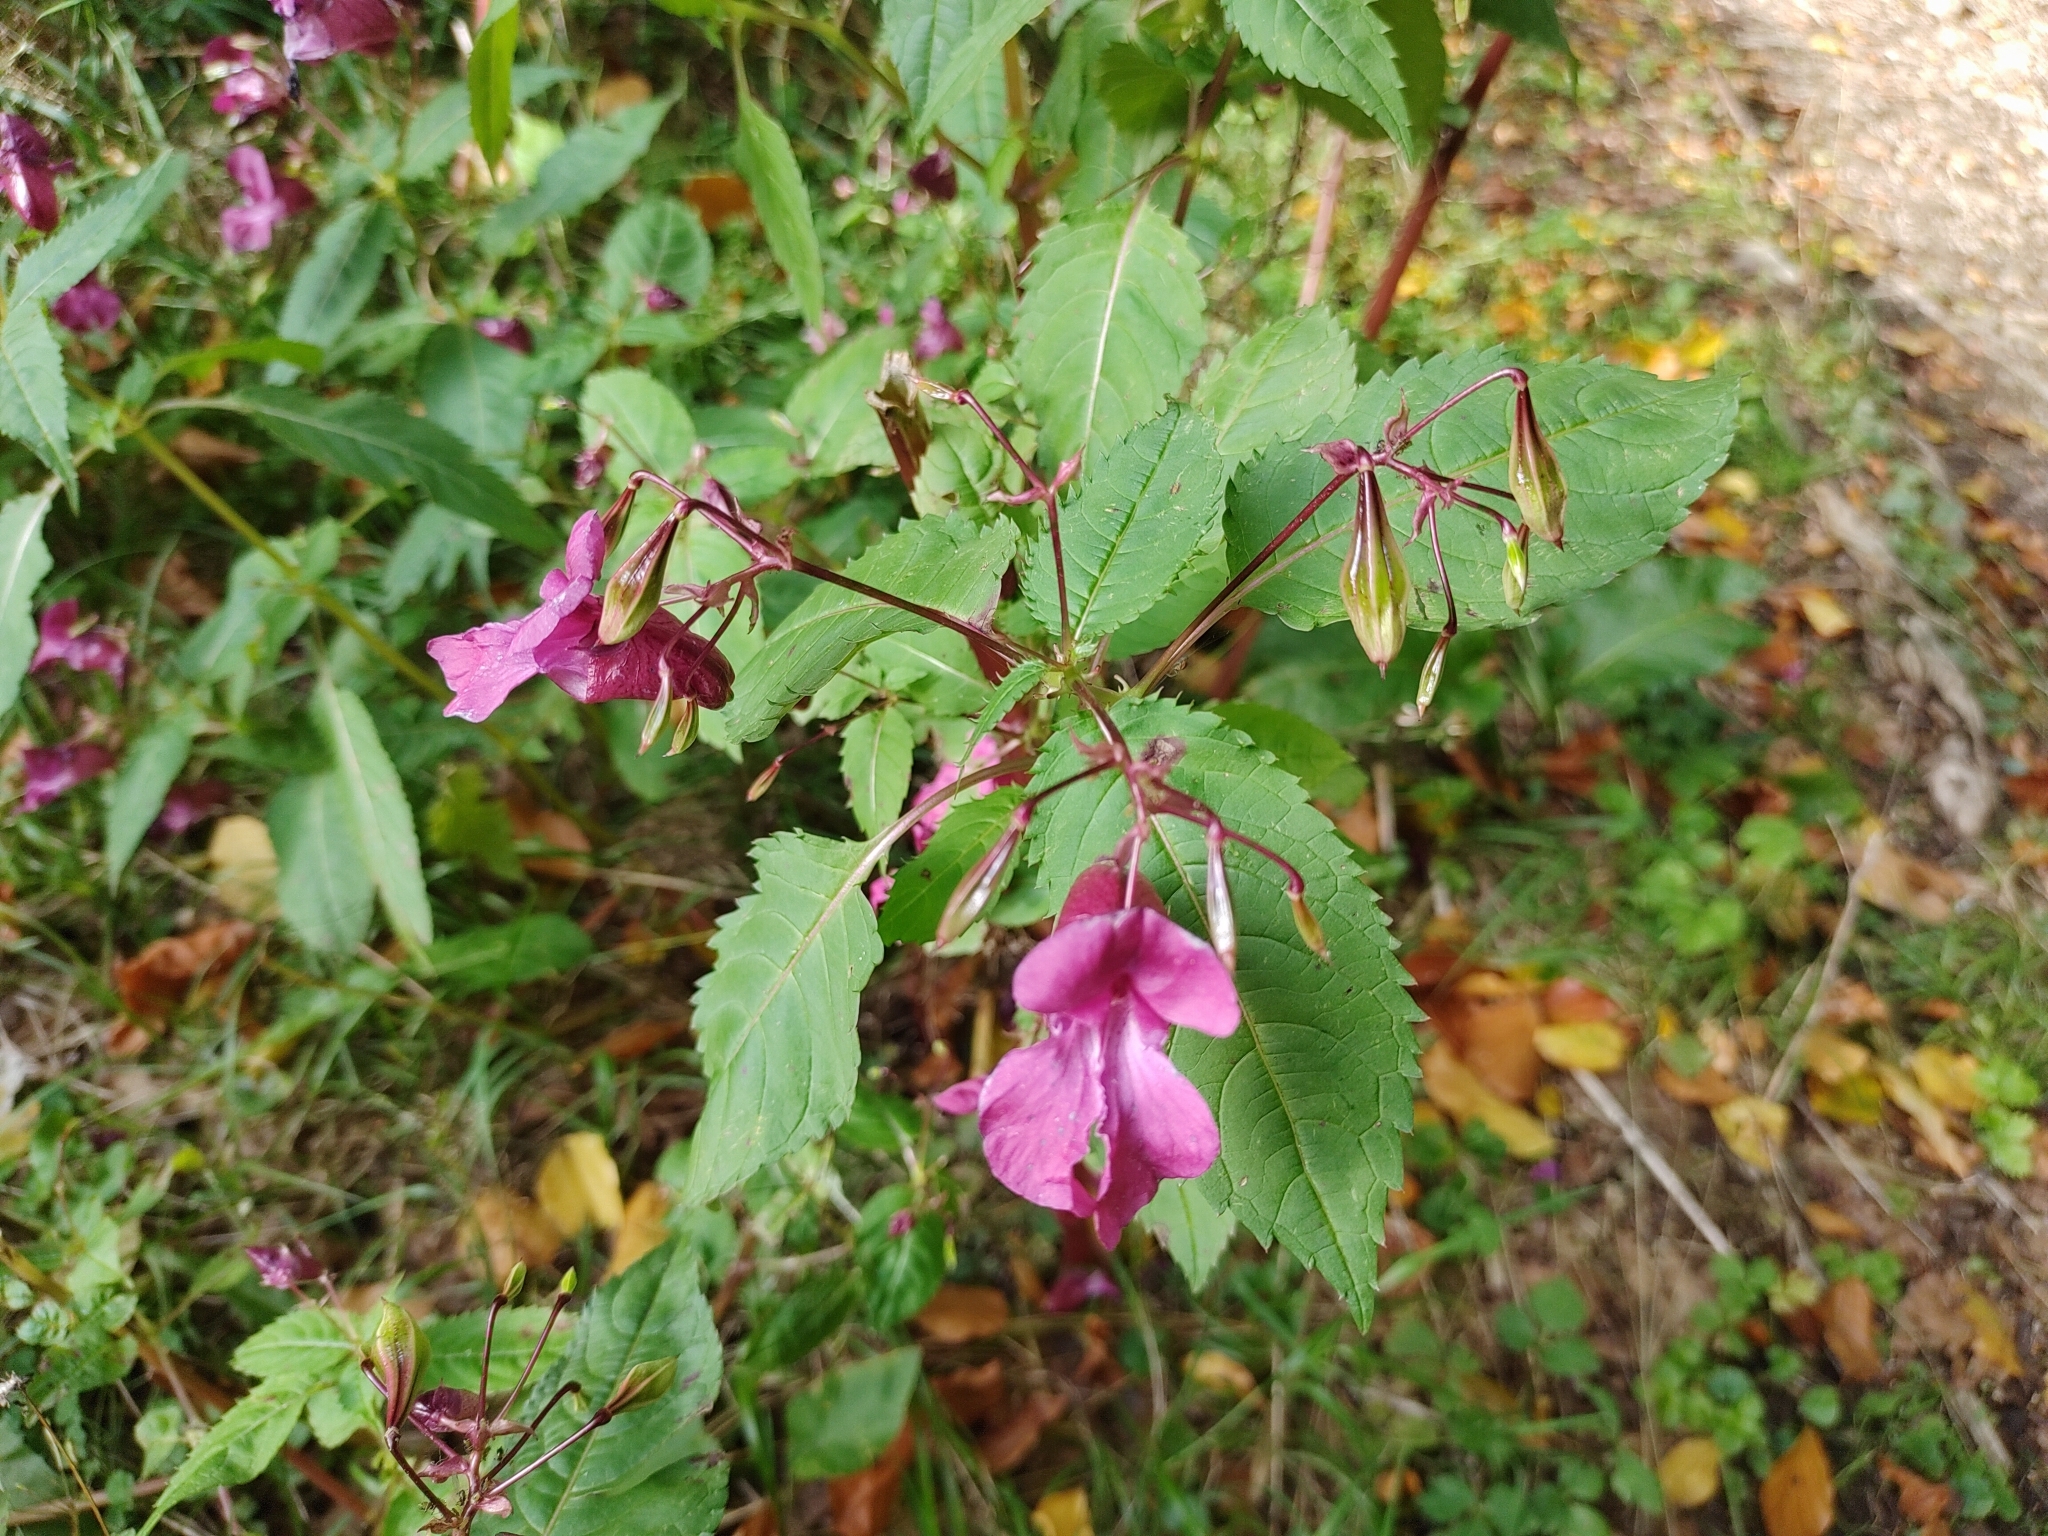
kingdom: Plantae
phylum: Tracheophyta
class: Magnoliopsida
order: Ericales
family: Balsaminaceae
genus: Impatiens
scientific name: Impatiens glandulifera
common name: Himalayan balsam
